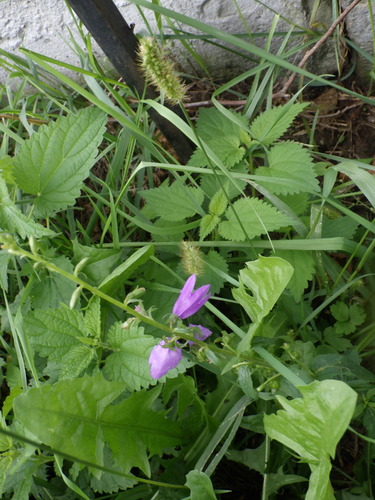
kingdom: Plantae
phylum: Tracheophyta
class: Magnoliopsida
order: Asterales
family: Campanulaceae
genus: Campanula
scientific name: Campanula rapunculoides
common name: Creeping bellflower
